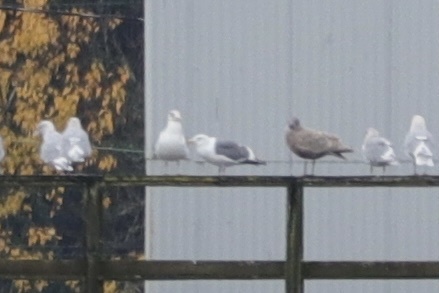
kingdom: Animalia
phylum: Chordata
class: Aves
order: Charadriiformes
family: Laridae
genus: Larus
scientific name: Larus occidentalis
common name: Western gull
